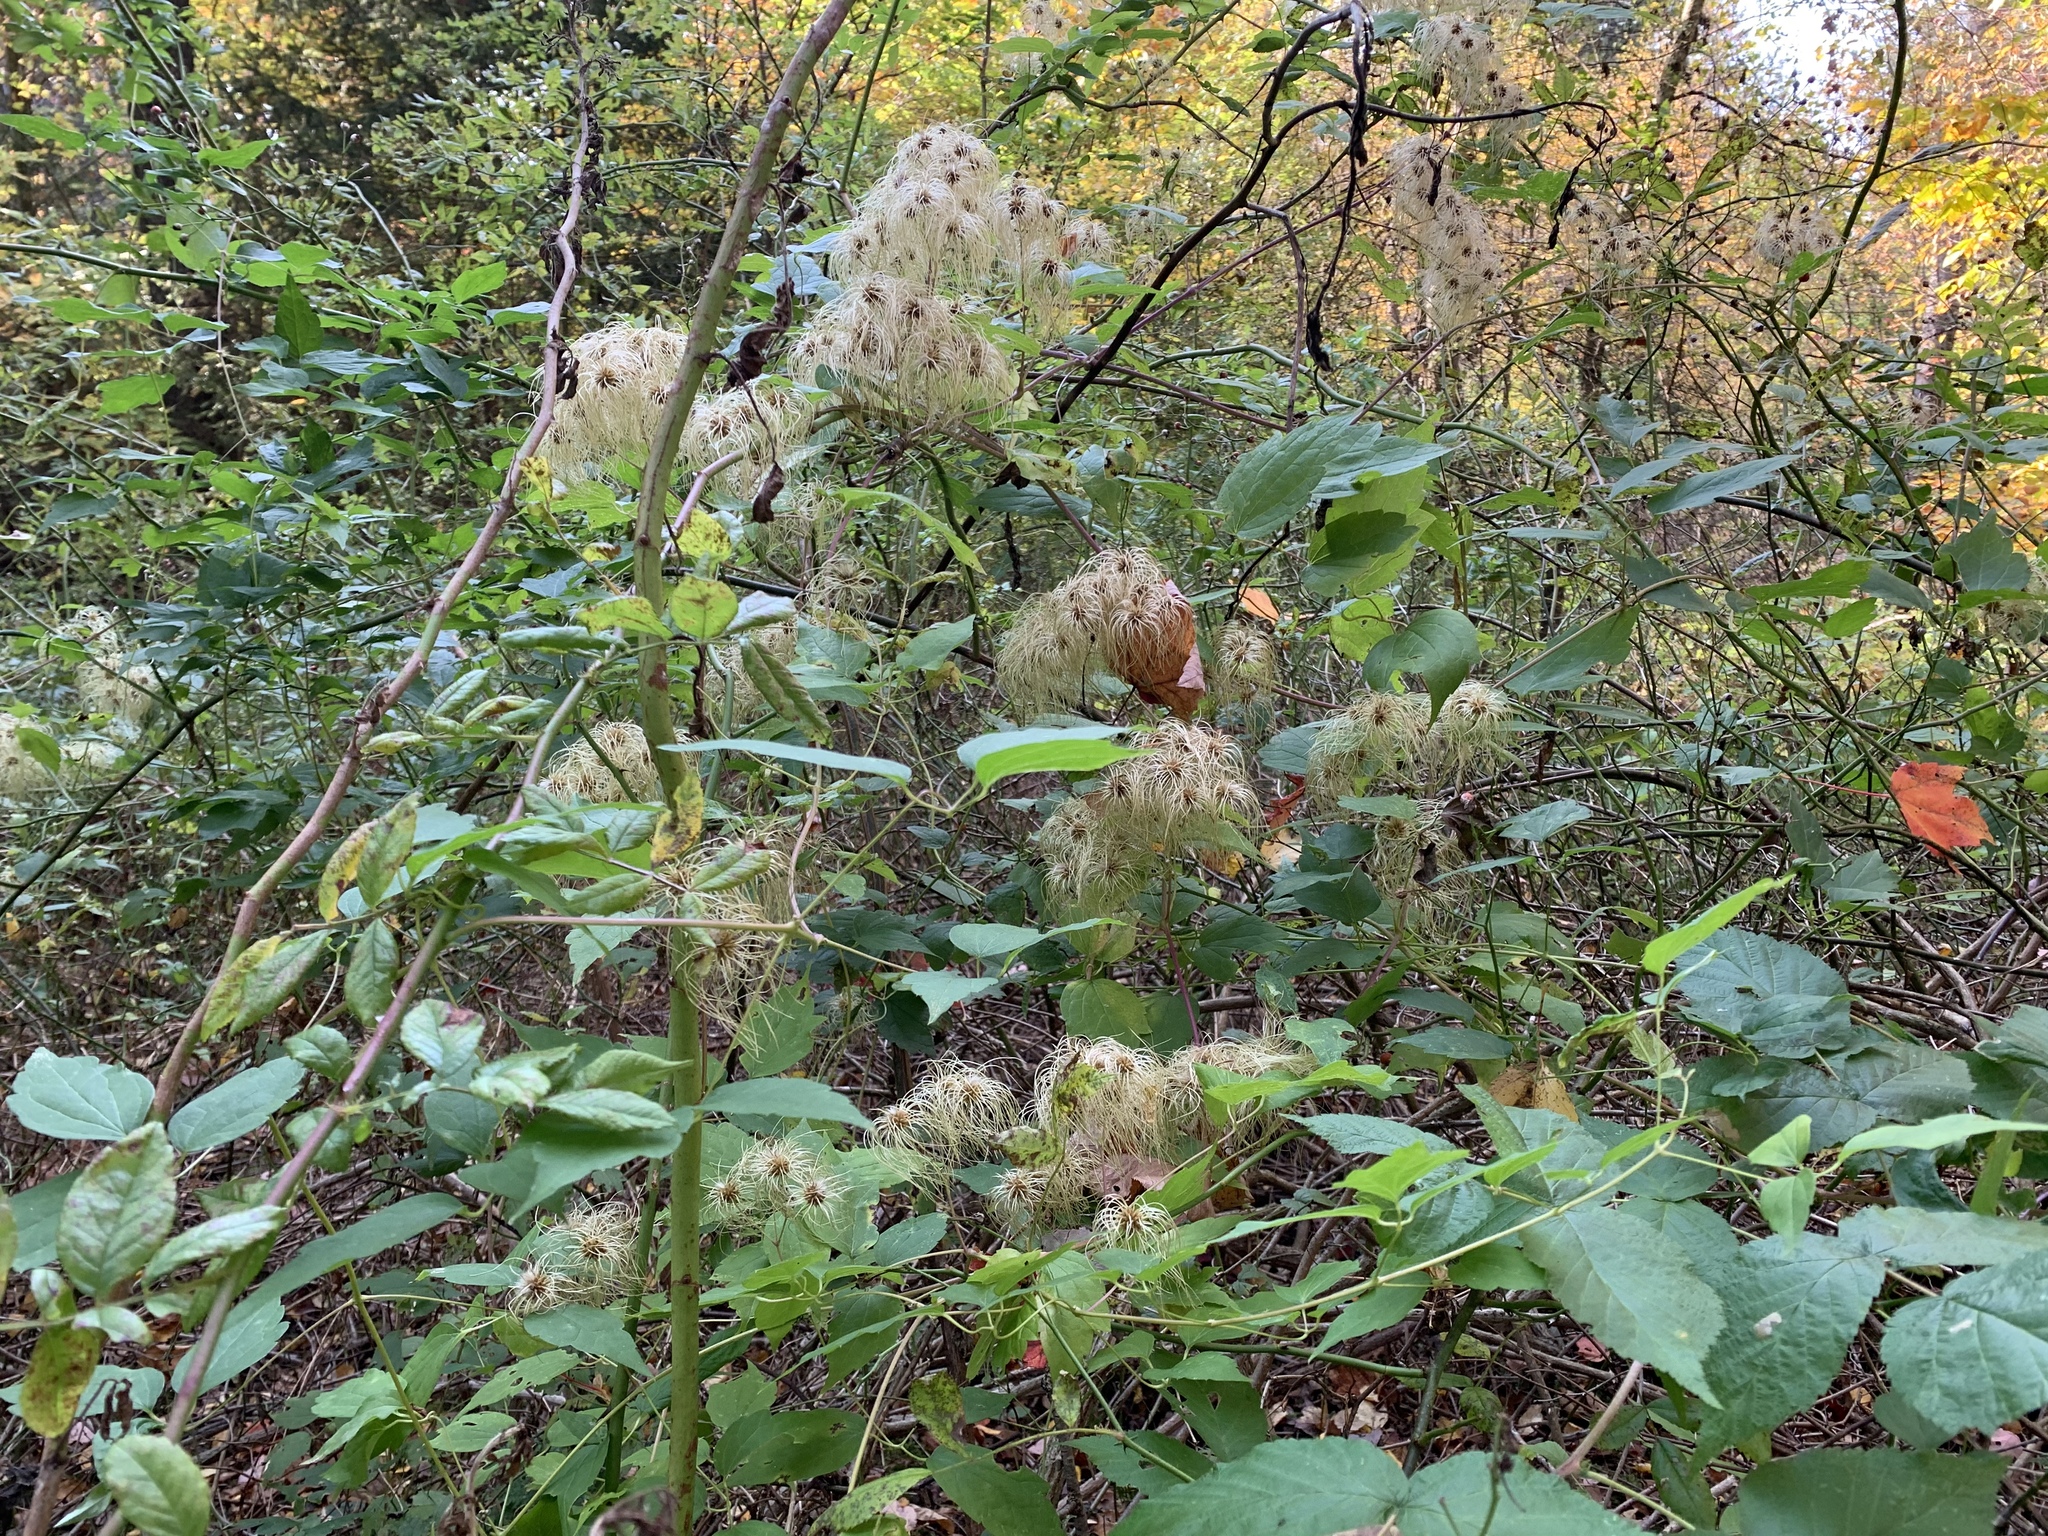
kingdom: Plantae
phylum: Tracheophyta
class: Magnoliopsida
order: Ranunculales
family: Ranunculaceae
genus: Clematis
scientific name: Clematis virginiana
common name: Virgin's-bower
